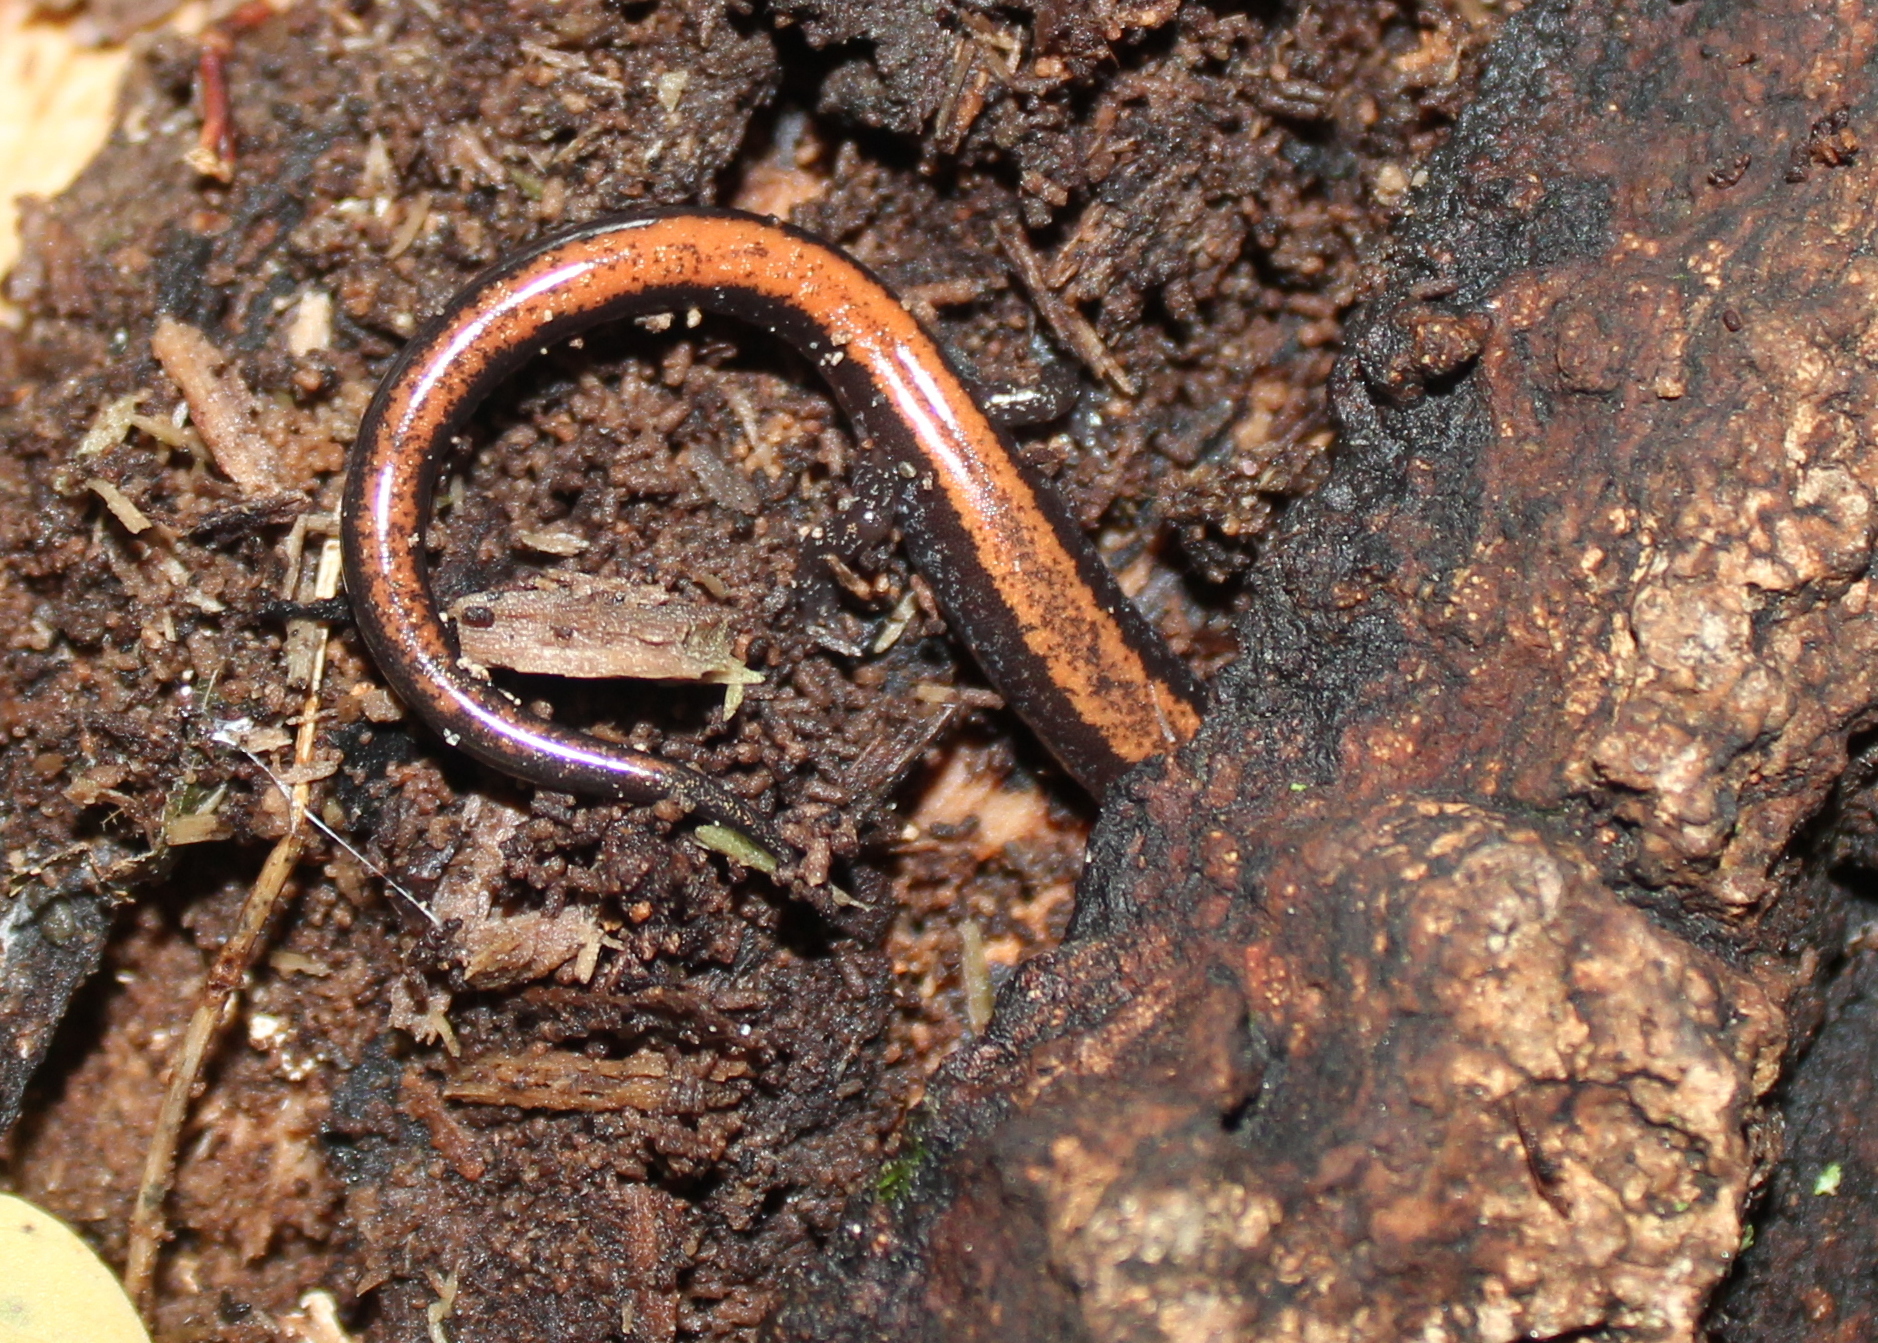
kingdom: Animalia
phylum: Chordata
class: Amphibia
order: Caudata
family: Plethodontidae
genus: Plethodon
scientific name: Plethodon cinereus
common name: Redback salamander
